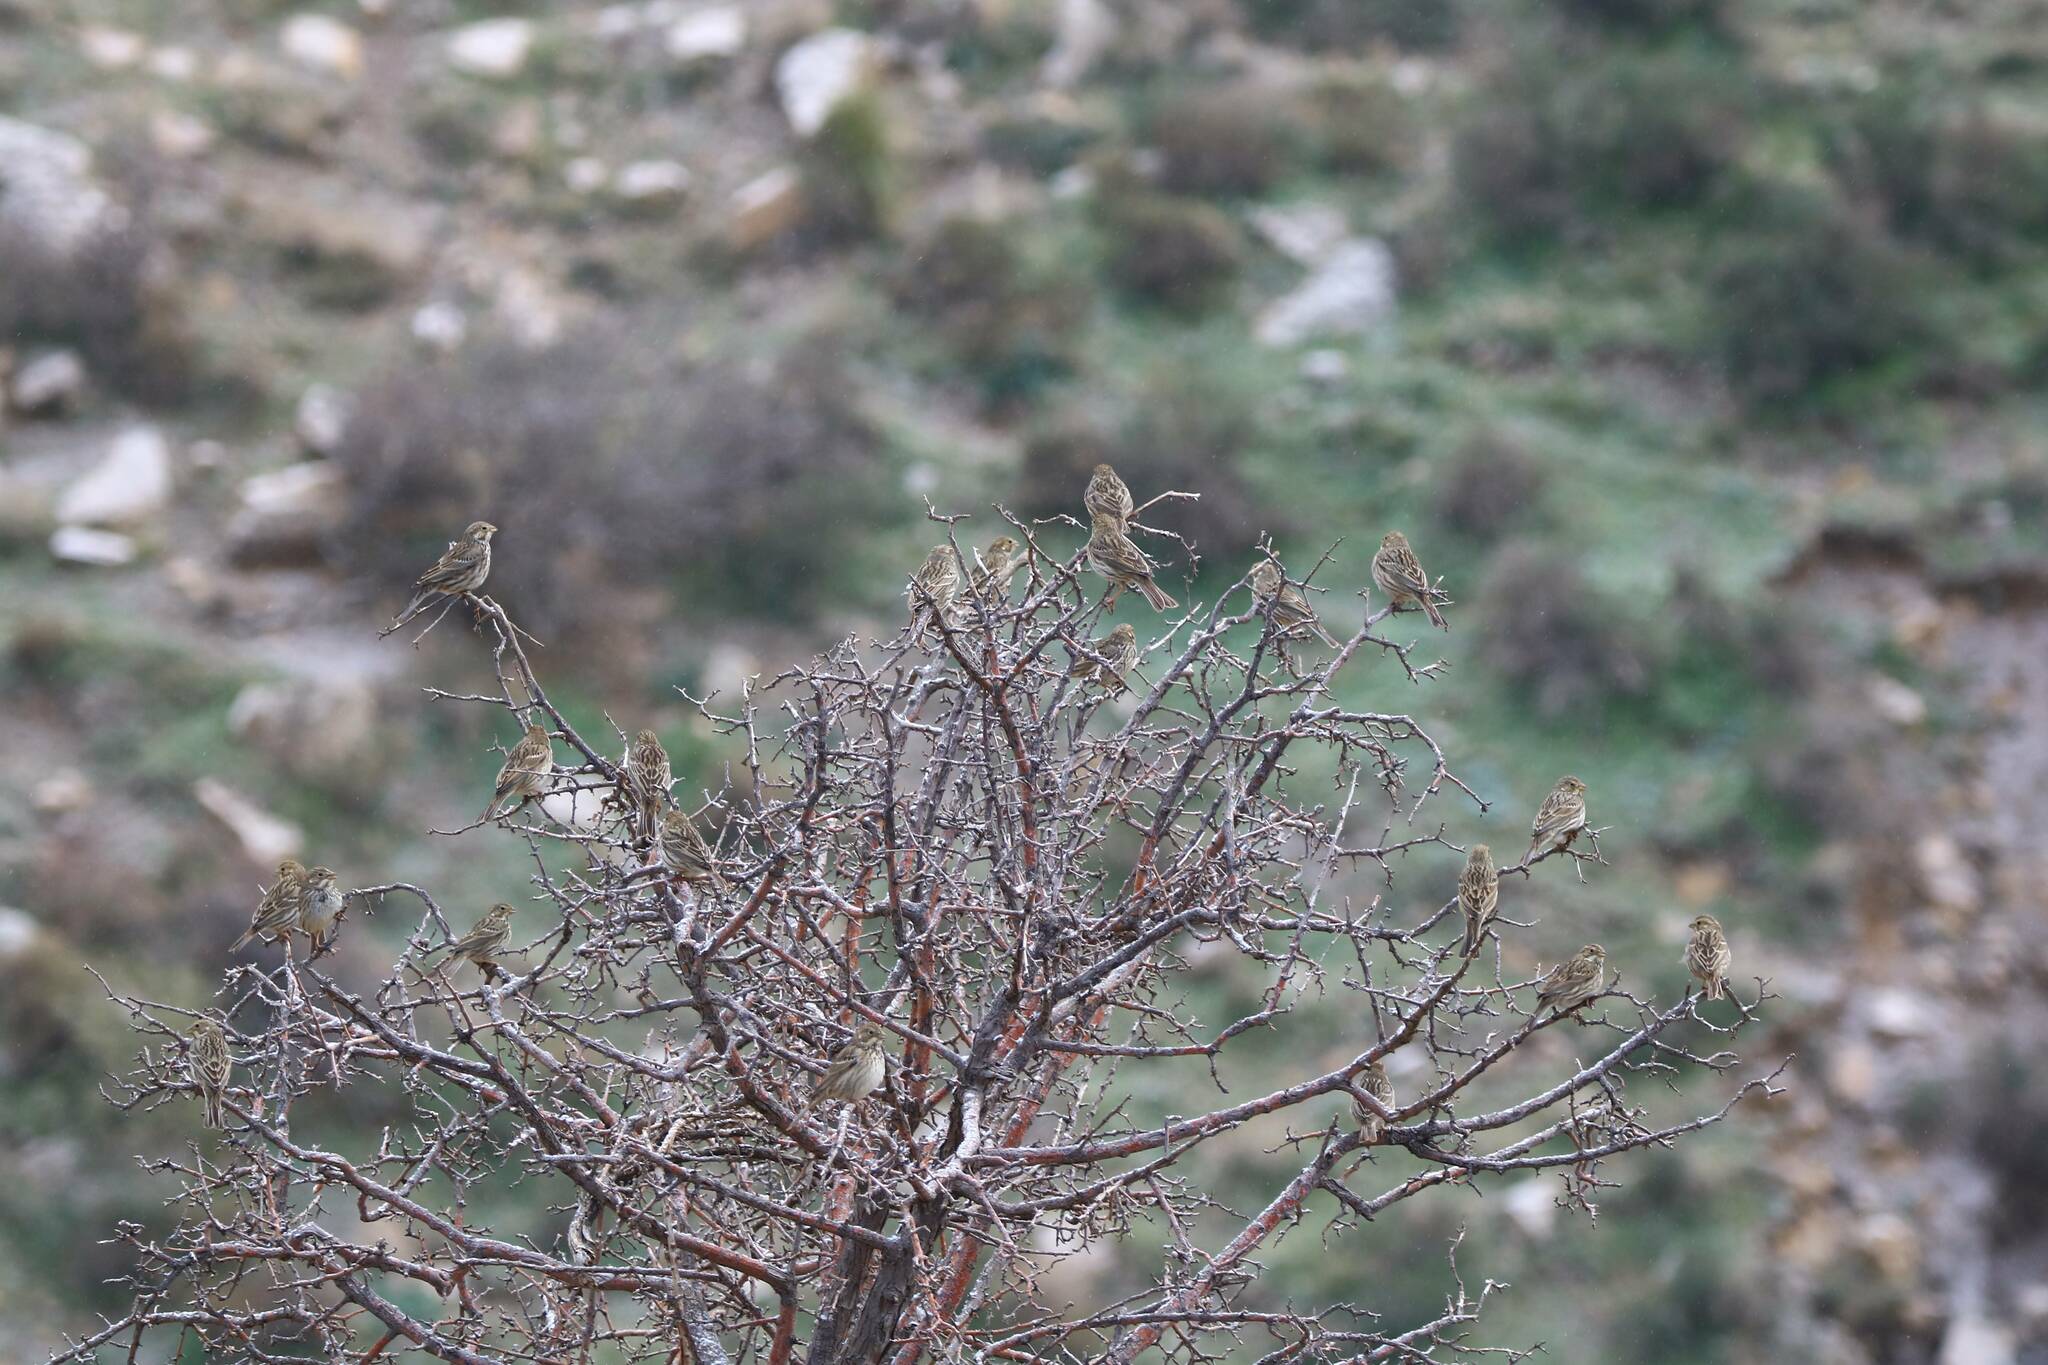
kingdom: Animalia
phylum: Chordata
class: Aves
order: Passeriformes
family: Emberizidae
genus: Emberiza
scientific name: Emberiza calandra
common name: Corn bunting
